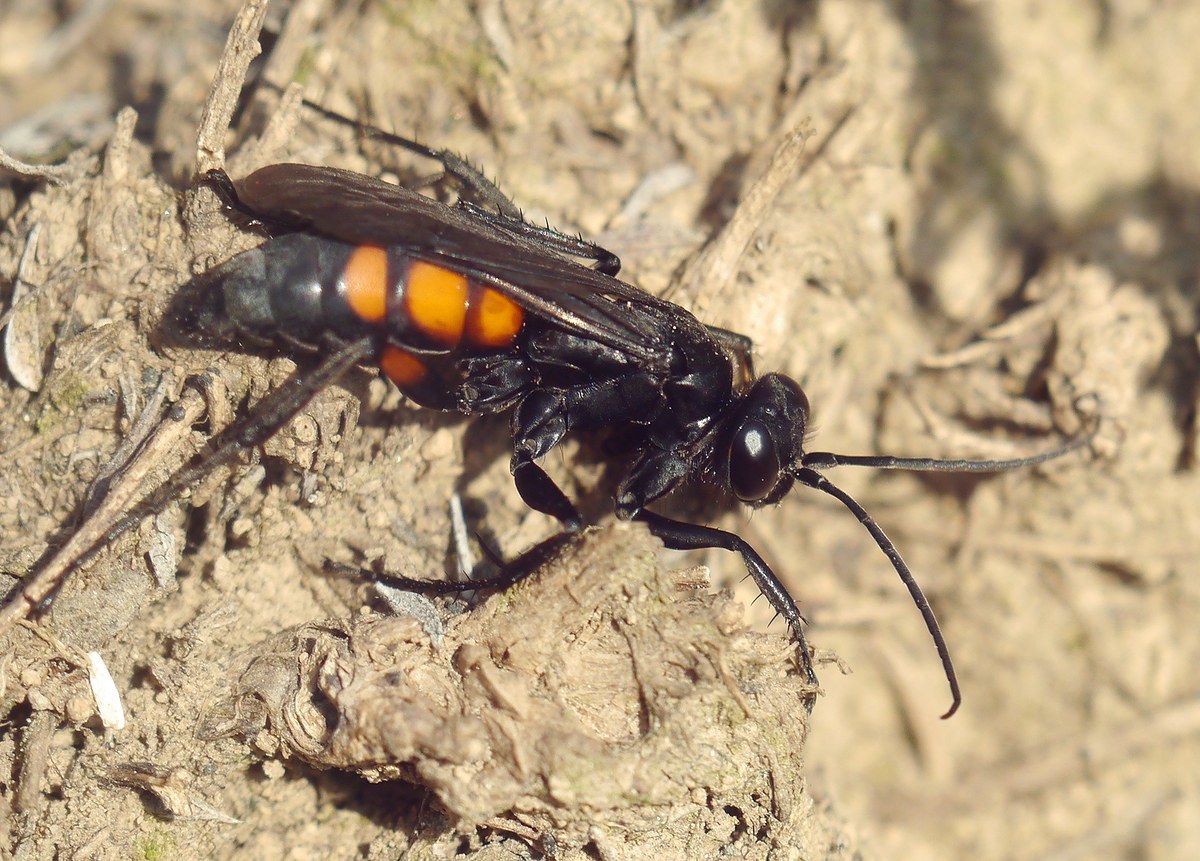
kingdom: Animalia
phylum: Arthropoda
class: Insecta
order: Hymenoptera
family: Pompilidae
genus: Anoplius
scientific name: Anoplius viaticus
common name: Black banded spider wasp
